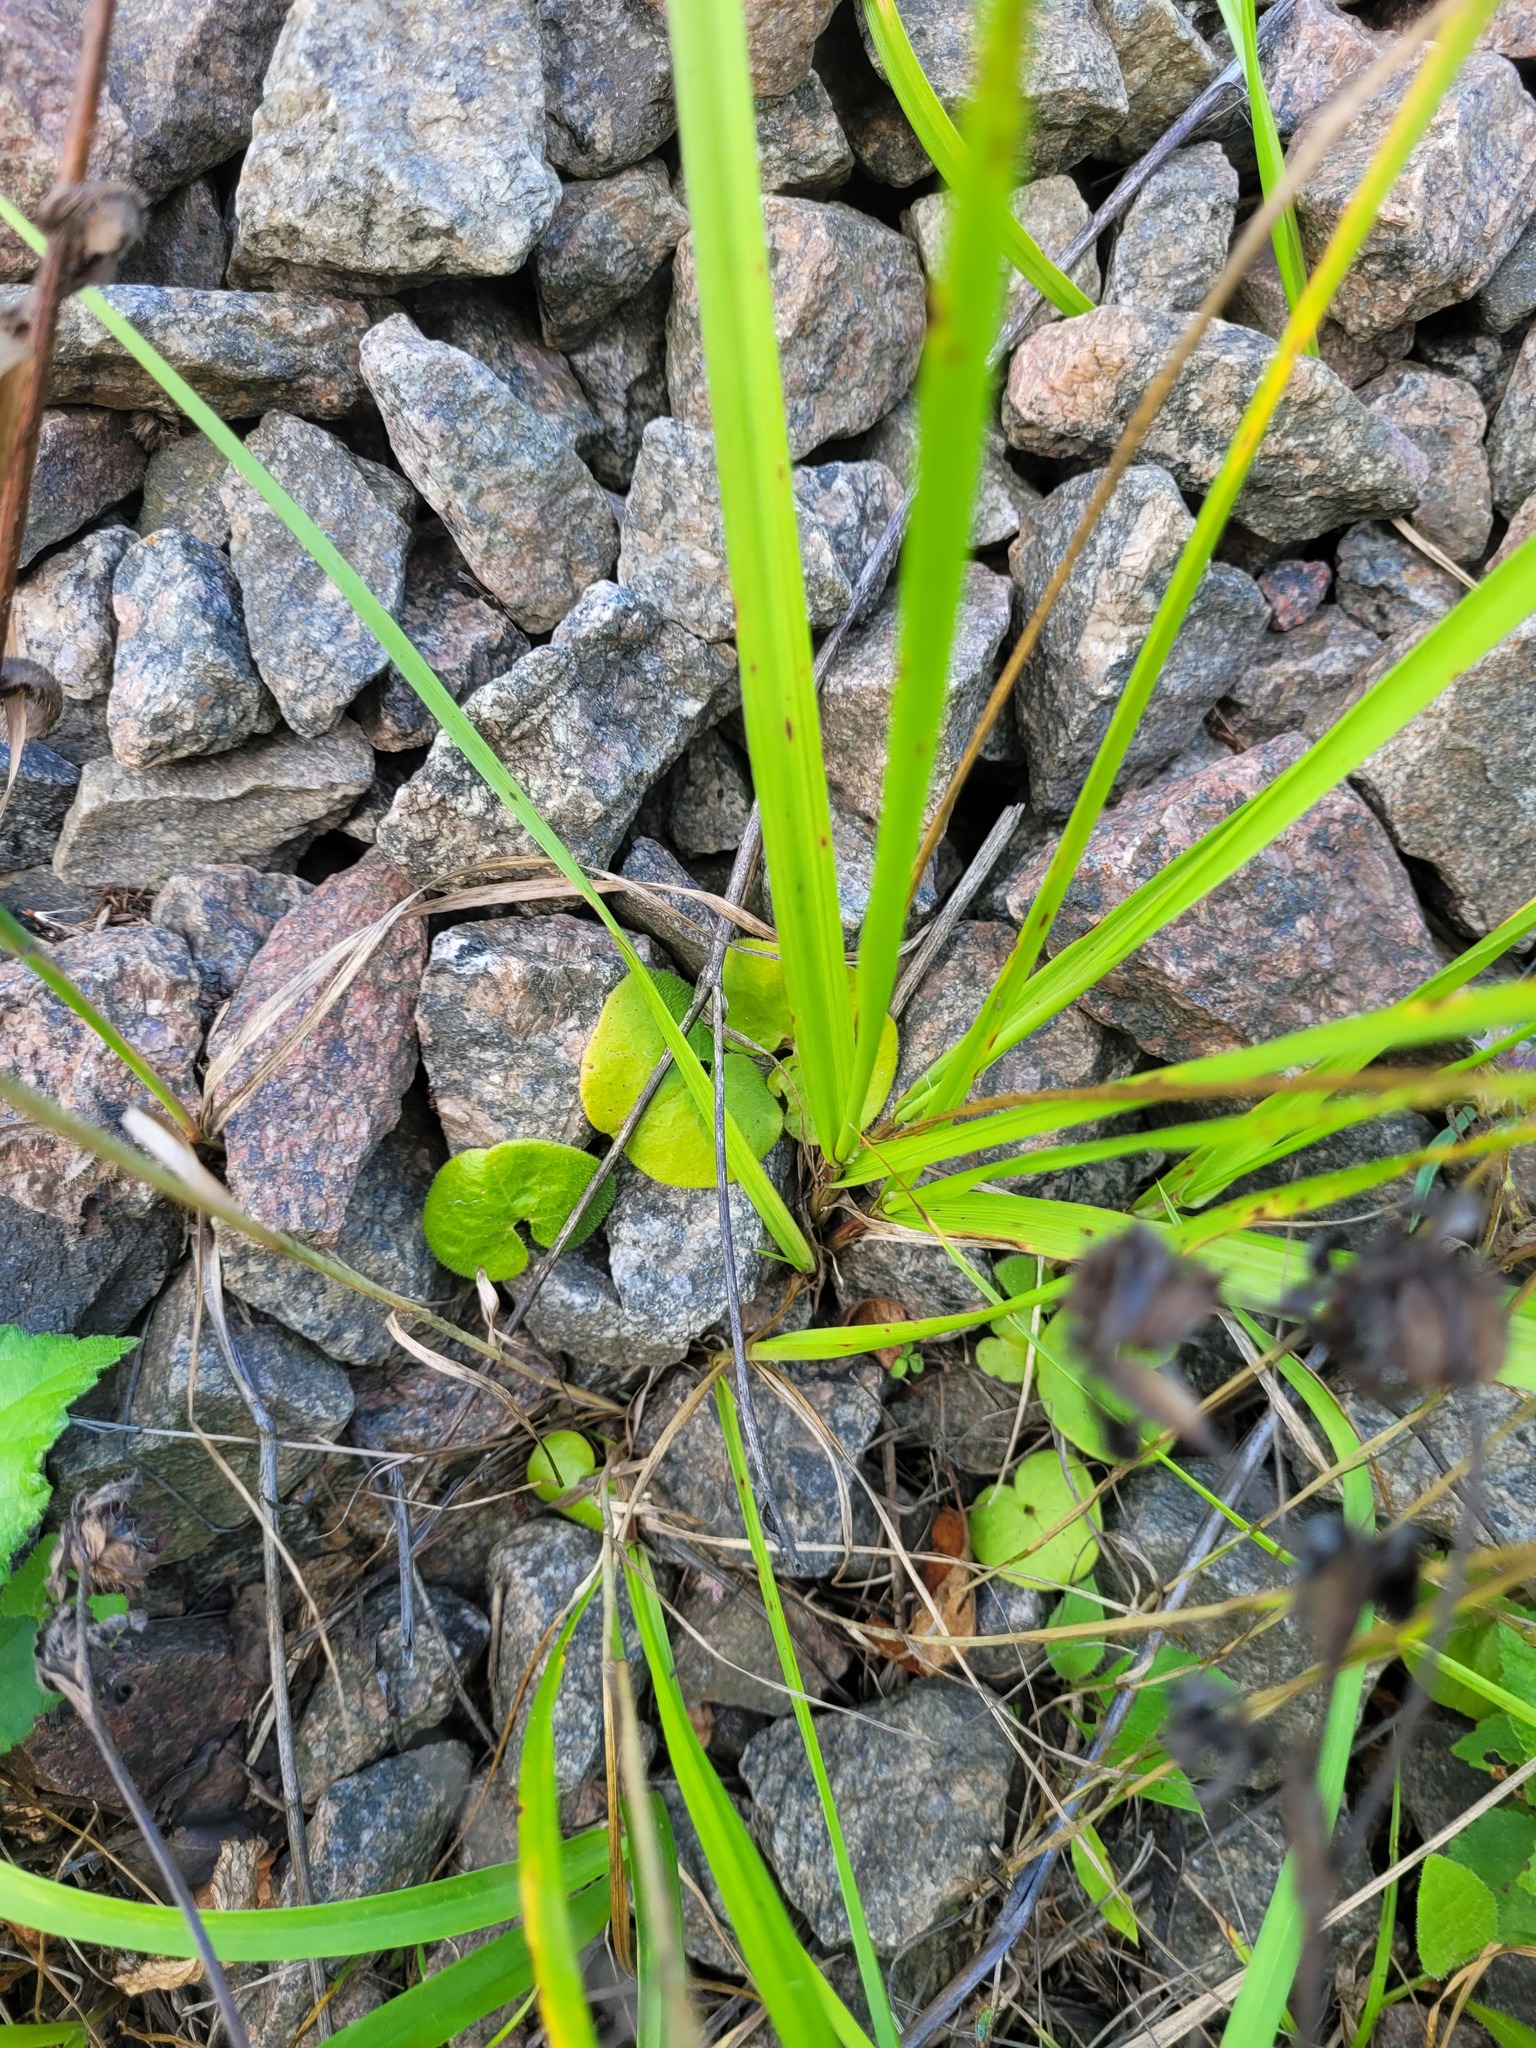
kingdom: Plantae
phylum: Tracheophyta
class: Magnoliopsida
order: Piperales
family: Aristolochiaceae
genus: Asarum
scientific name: Asarum europaeum
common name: Asarabacca
